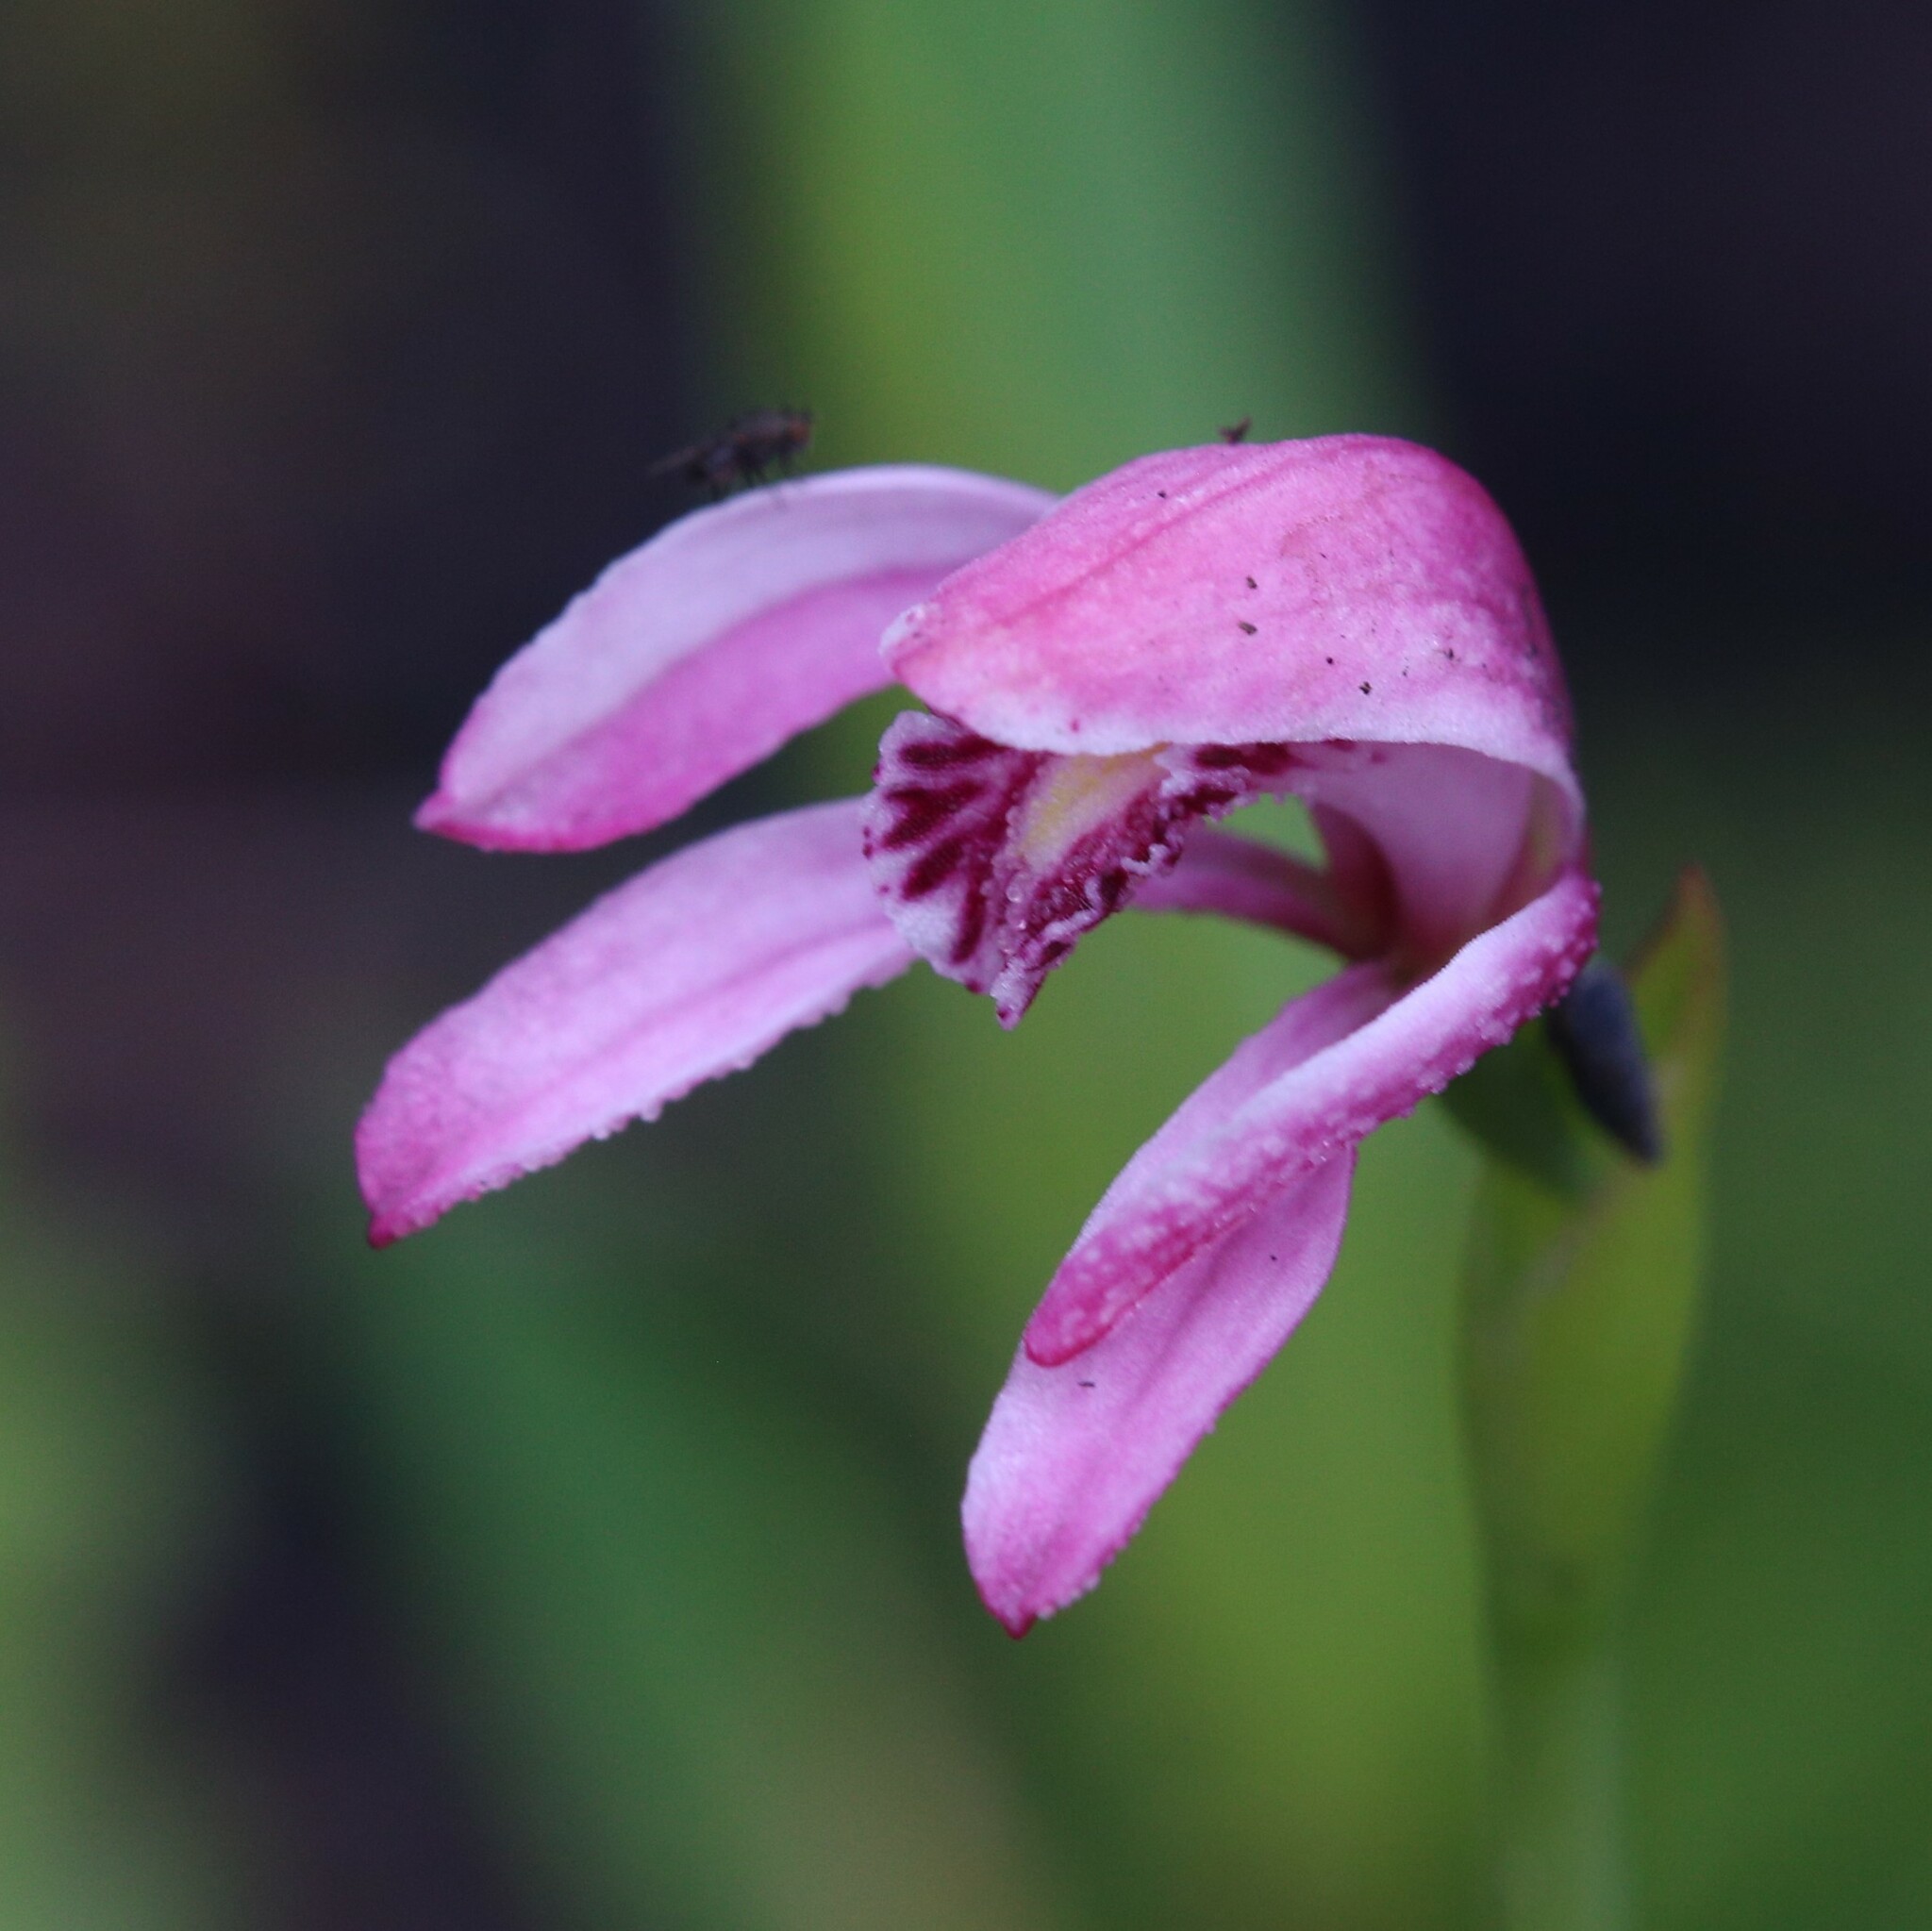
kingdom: Plantae
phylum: Tracheophyta
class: Liliopsida
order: Asparagales
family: Orchidaceae
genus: Pyrorchis
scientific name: Pyrorchis forrestii
